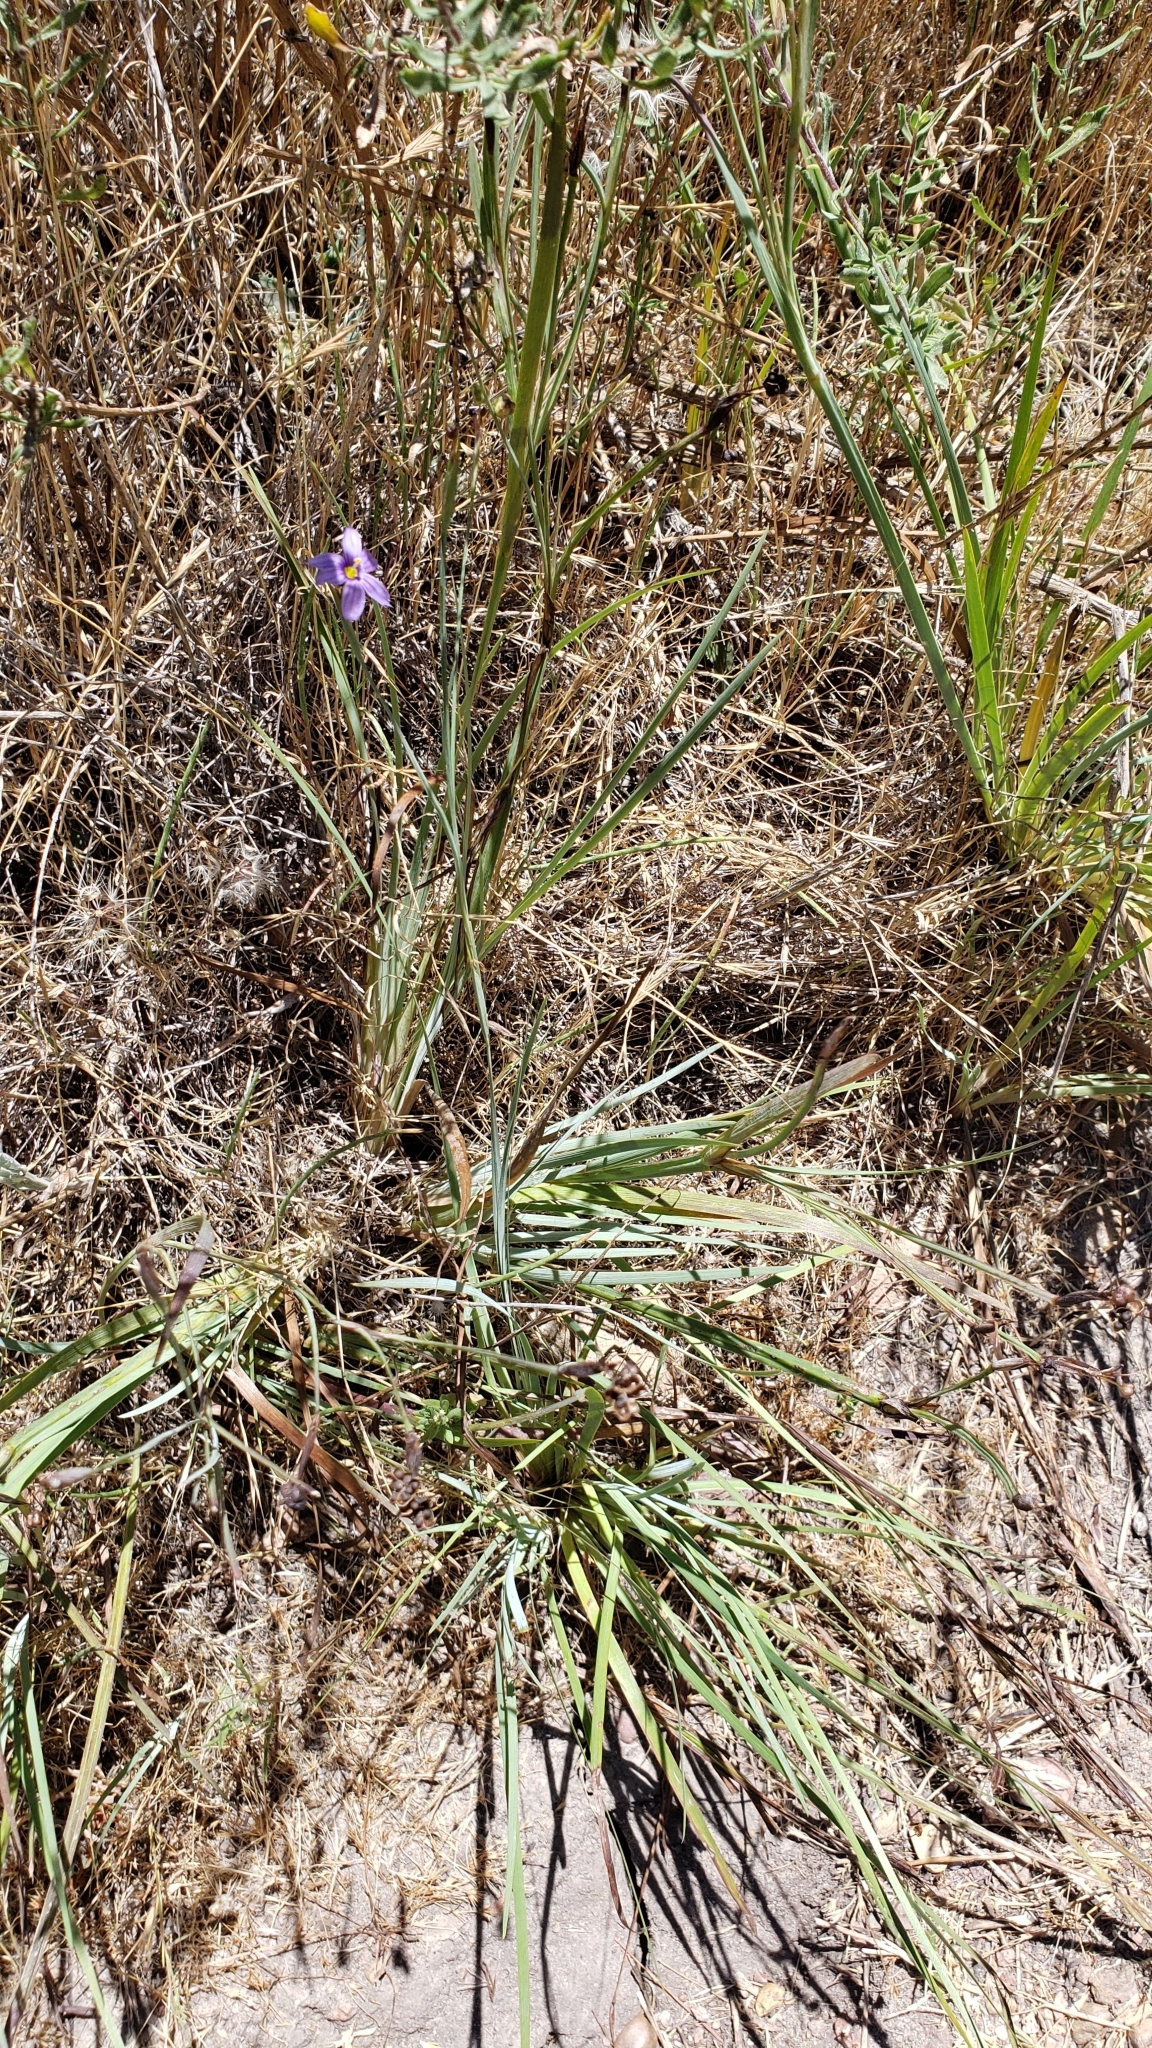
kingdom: Plantae
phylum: Tracheophyta
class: Liliopsida
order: Asparagales
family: Iridaceae
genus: Sisyrinchium
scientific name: Sisyrinchium bellum
